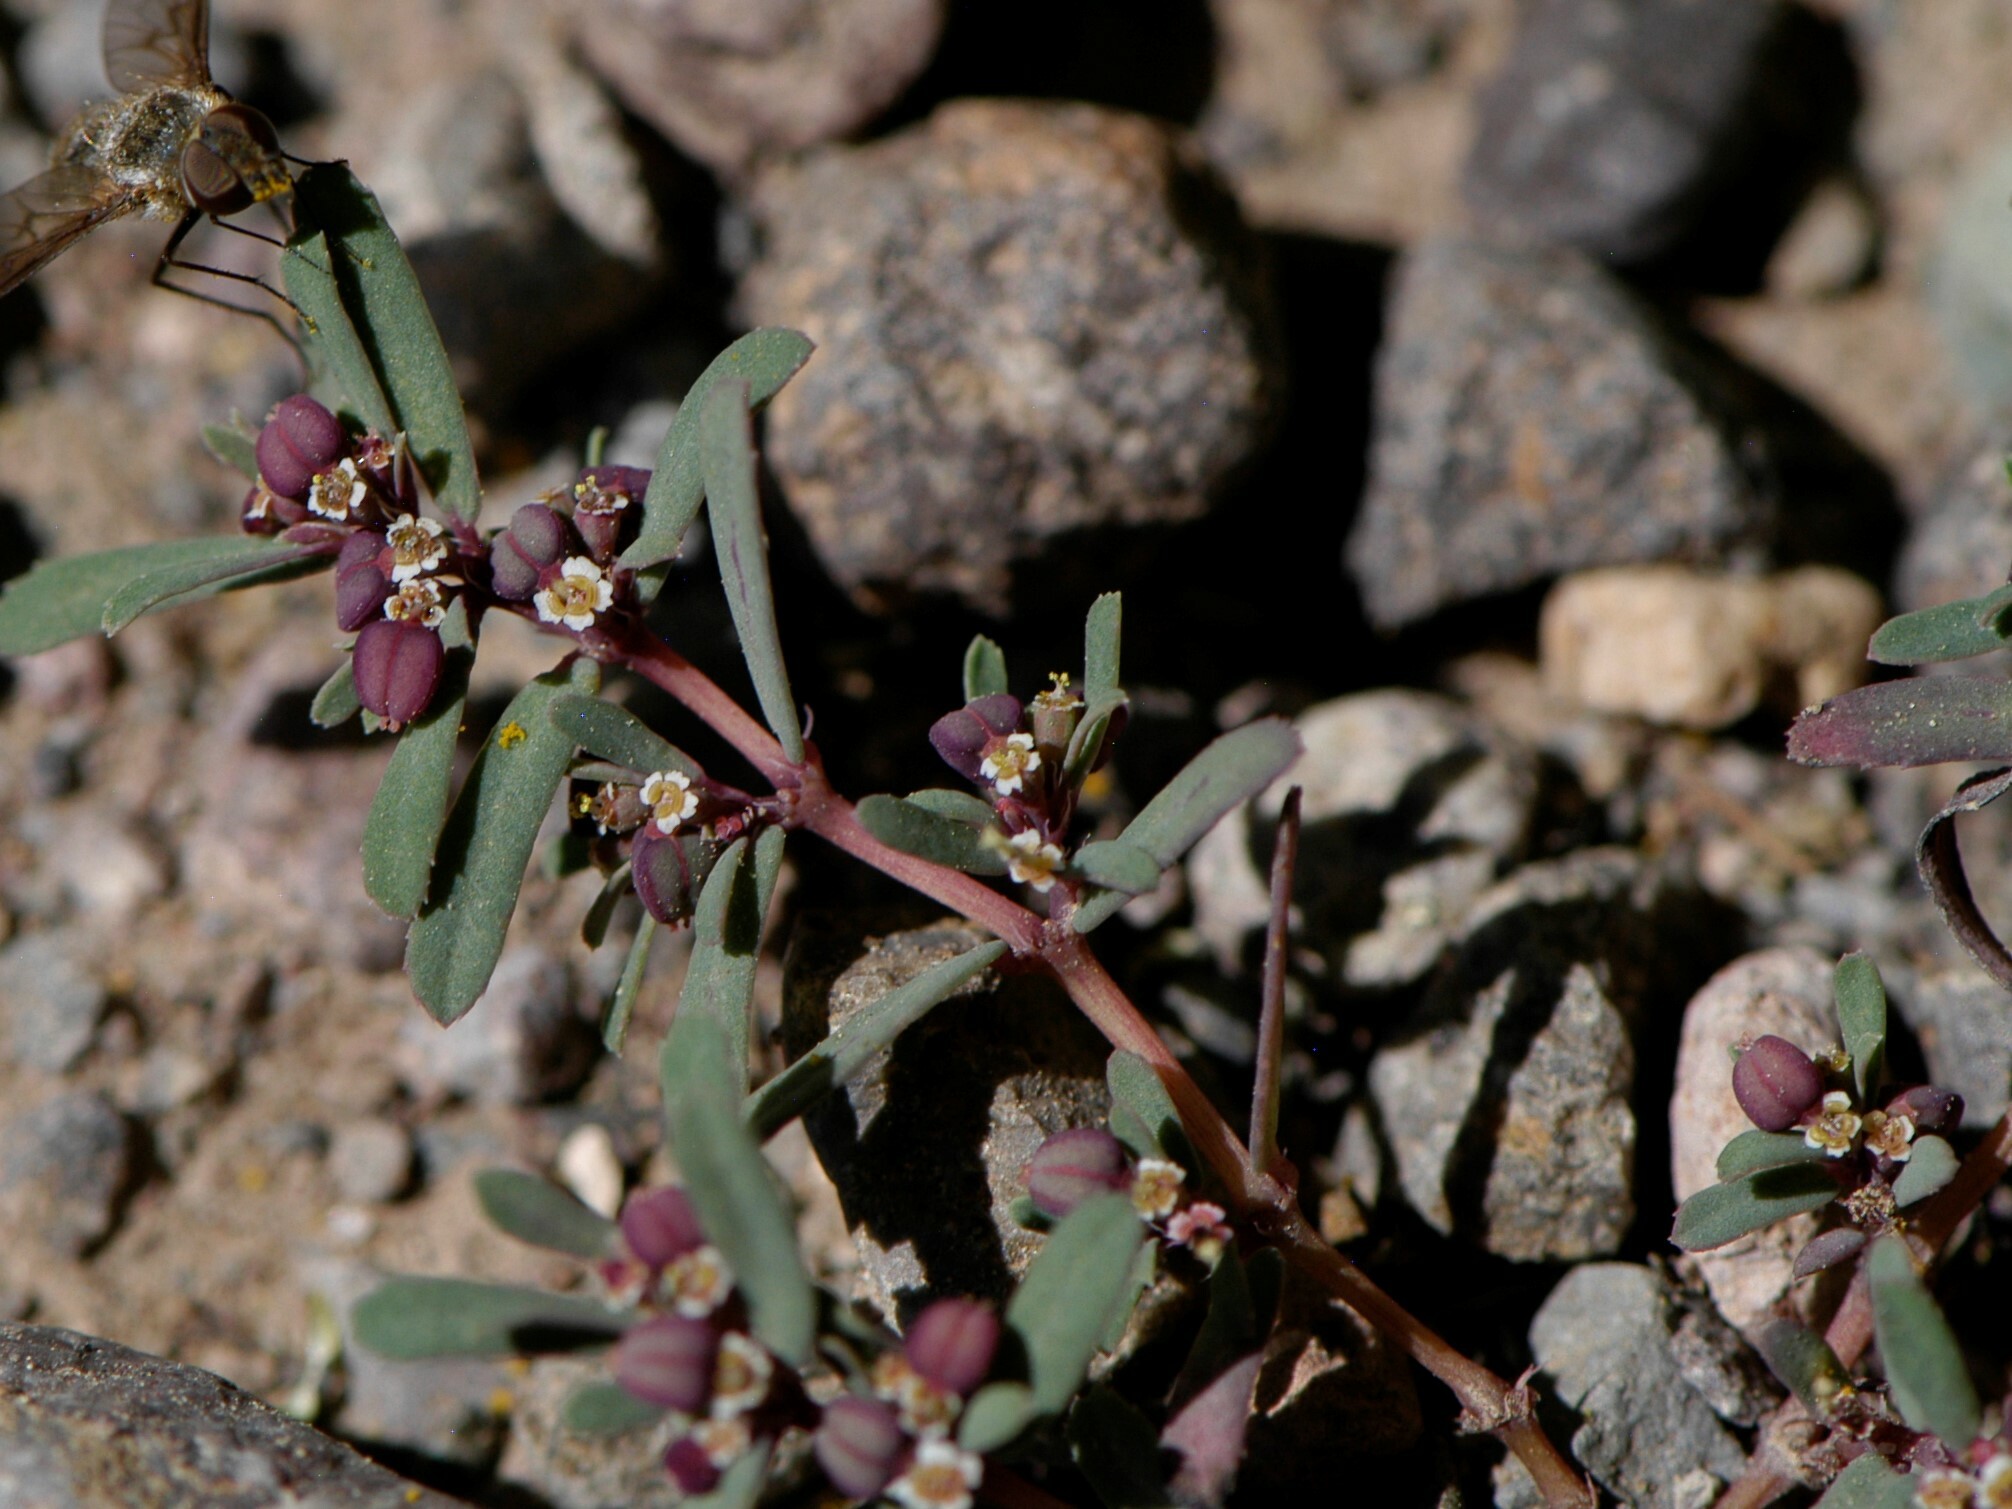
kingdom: Plantae
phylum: Tracheophyta
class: Magnoliopsida
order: Malpighiales
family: Euphorbiaceae
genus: Euphorbia
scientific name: Euphorbia serpillifolia
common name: Thyme-leaf spurge
